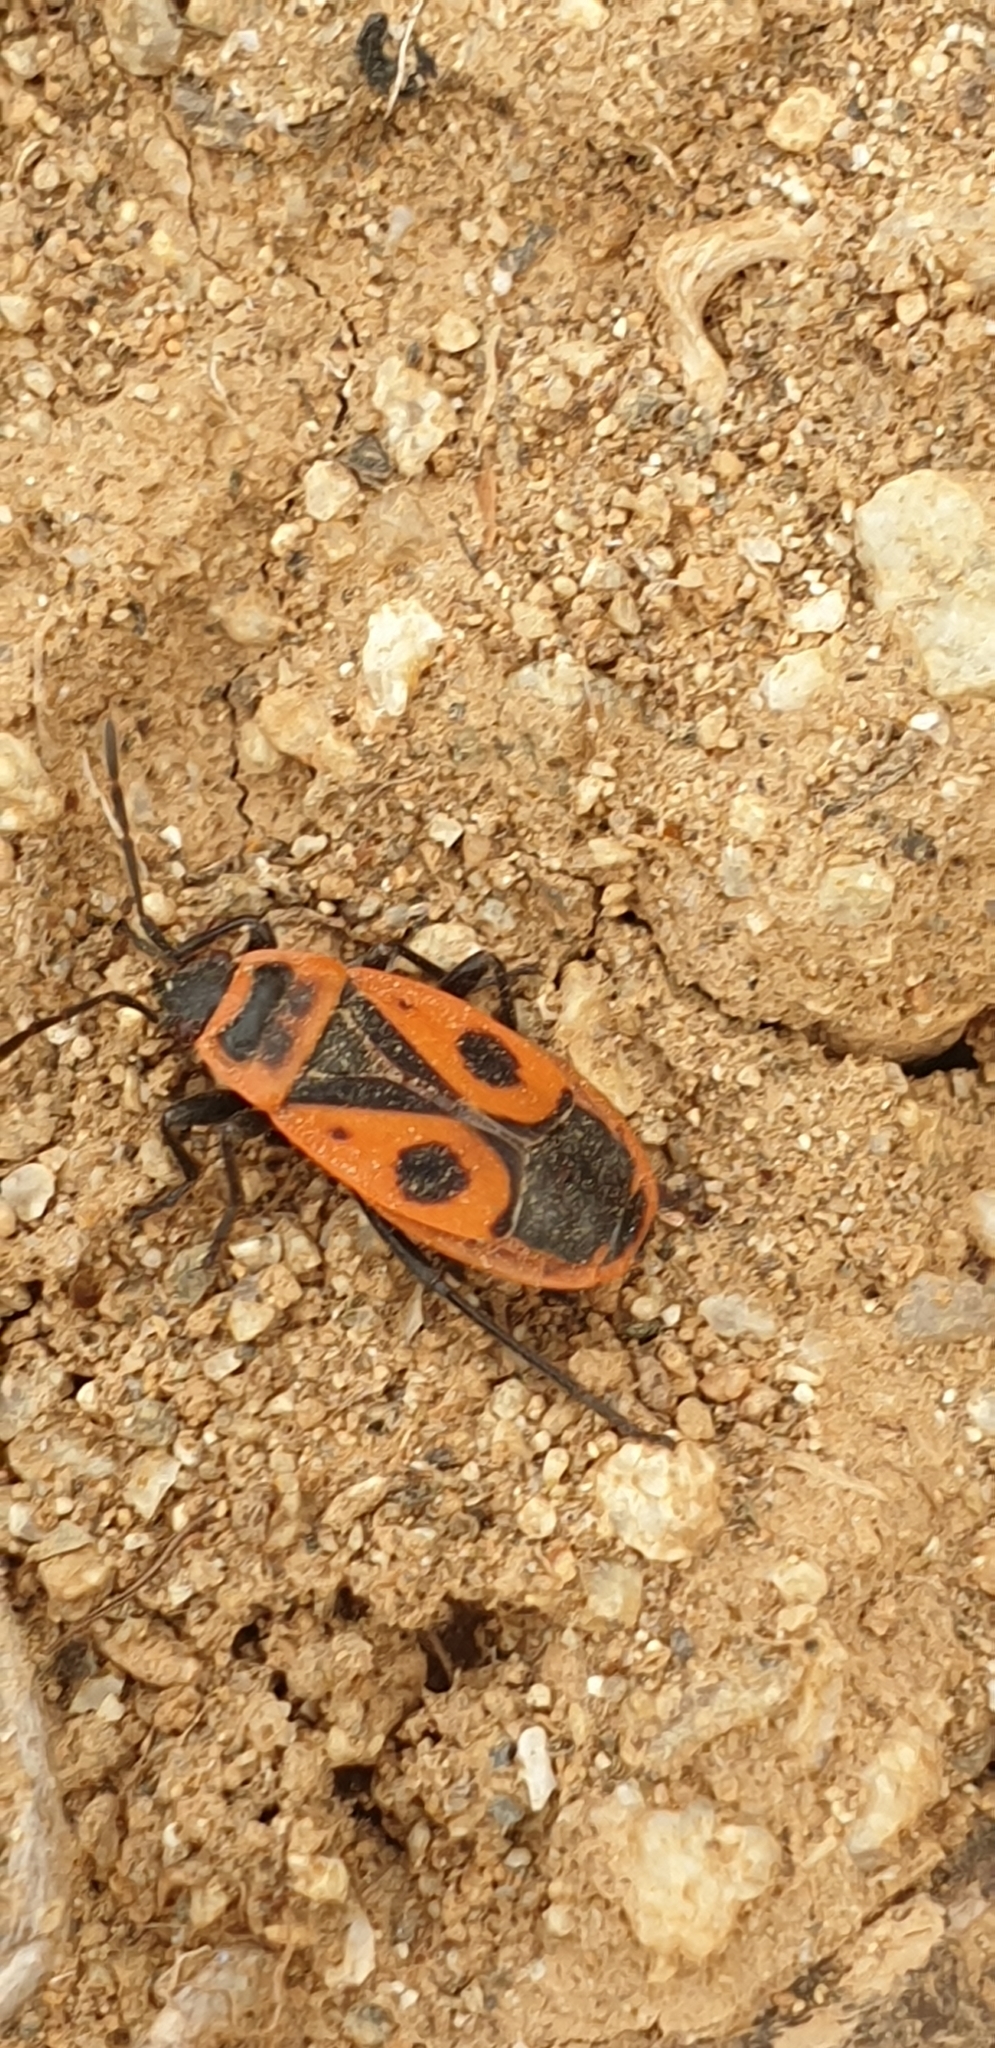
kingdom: Animalia
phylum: Arthropoda
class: Insecta
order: Hemiptera
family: Pyrrhocoridae
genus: Pyrrhocoris
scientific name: Pyrrhocoris apterus
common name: Firebug
